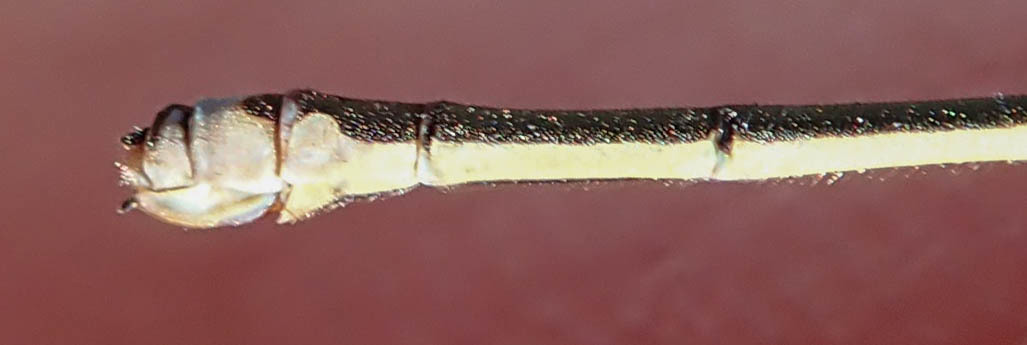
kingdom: Animalia
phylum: Arthropoda
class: Insecta
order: Odonata
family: Coenagrionidae
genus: Pinheyagrion
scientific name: Pinheyagrion angolicum
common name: Angola bluet
